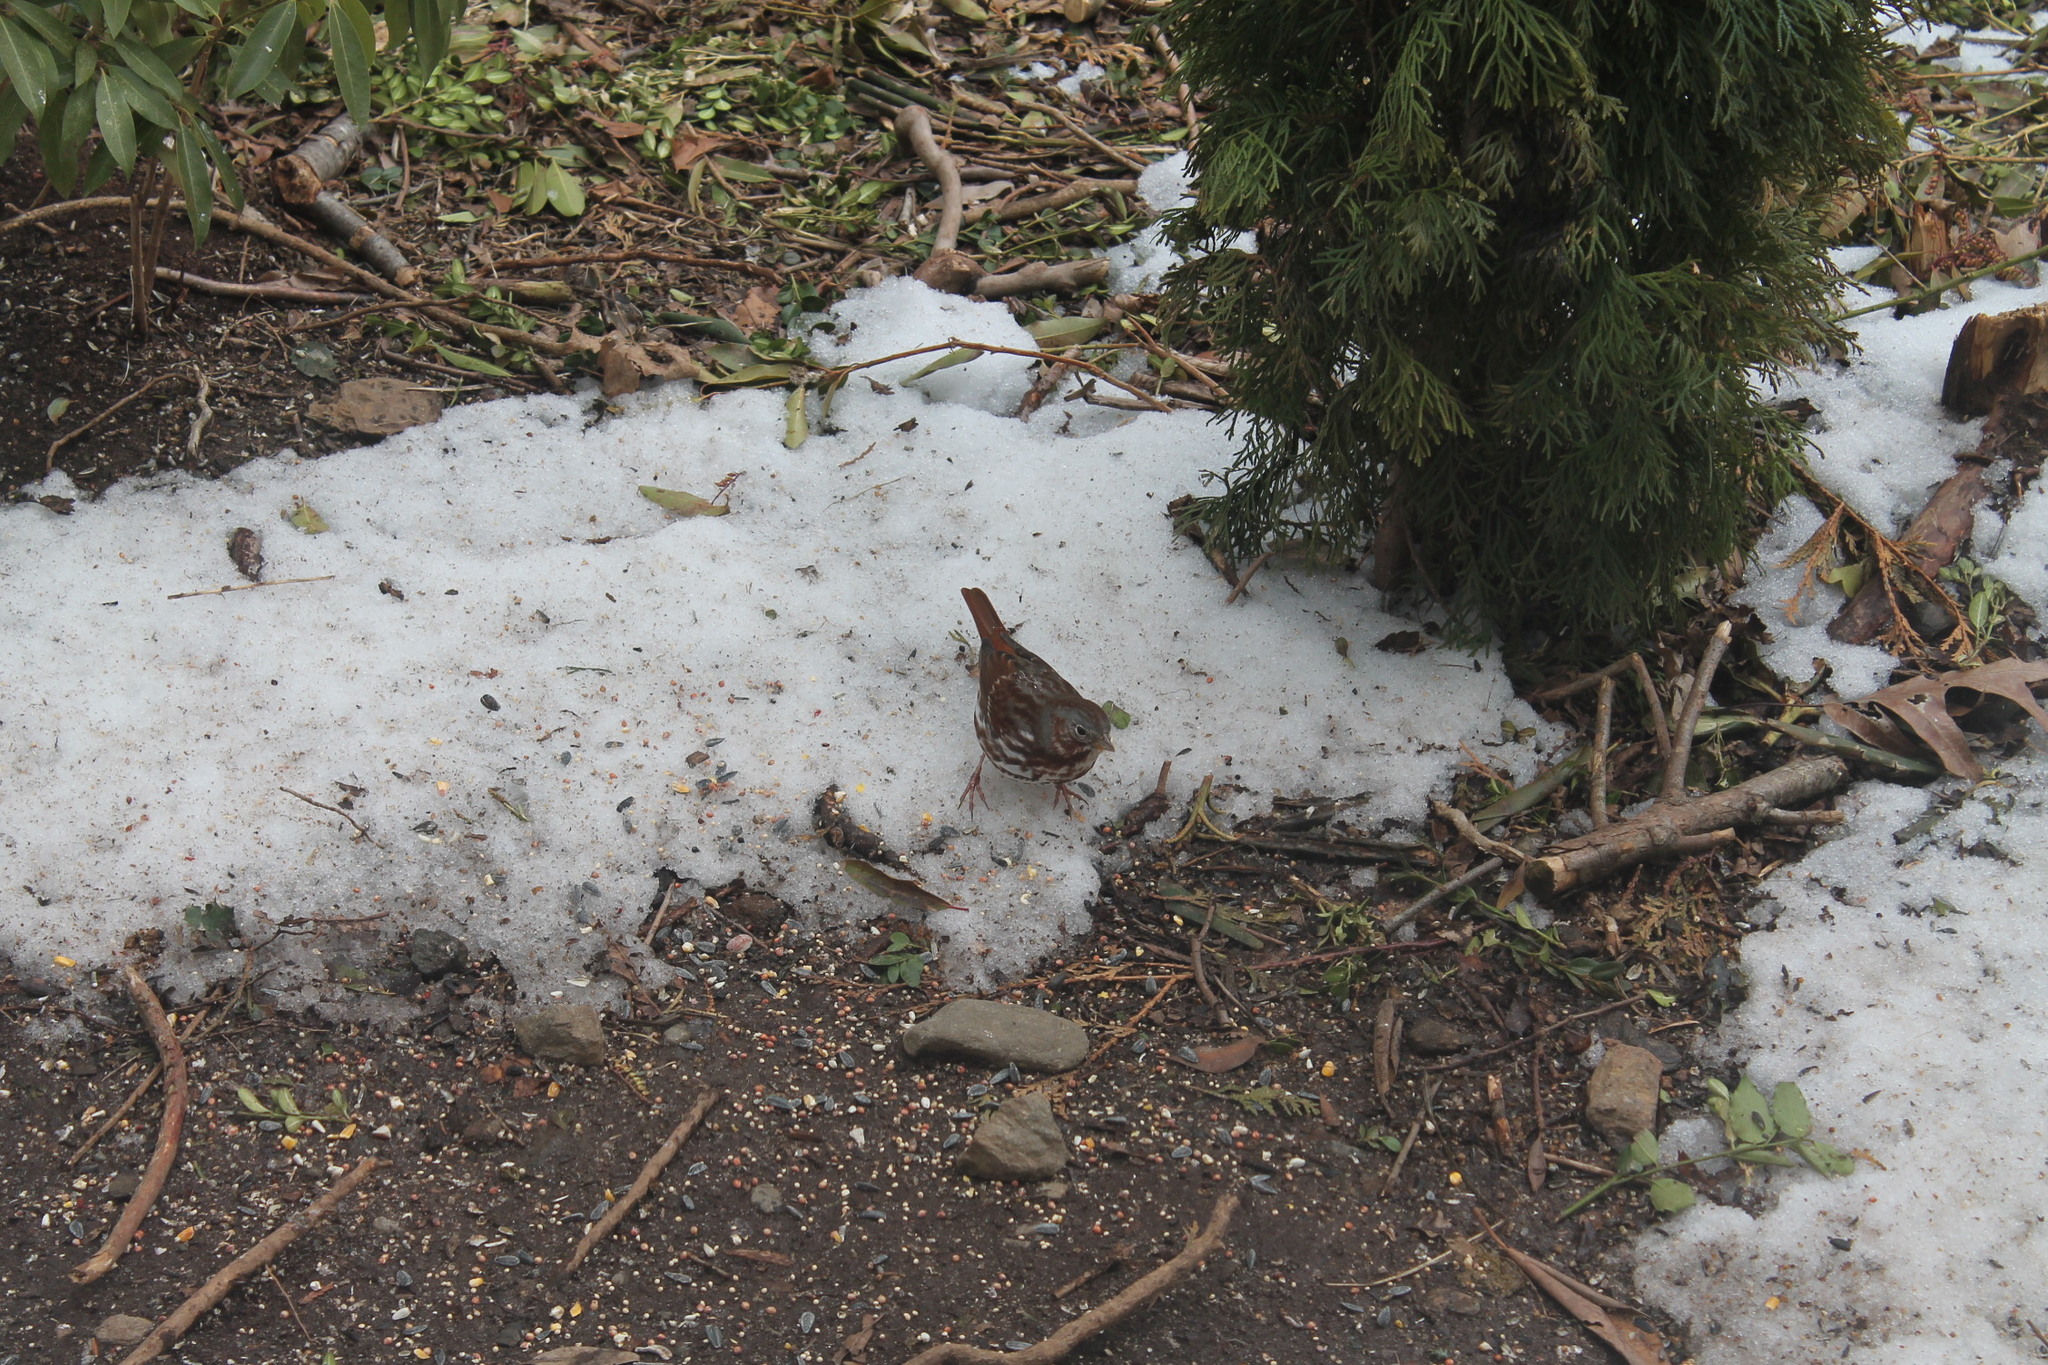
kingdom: Animalia
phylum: Chordata
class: Aves
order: Passeriformes
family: Passerellidae
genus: Passerella
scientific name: Passerella iliaca
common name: Fox sparrow
